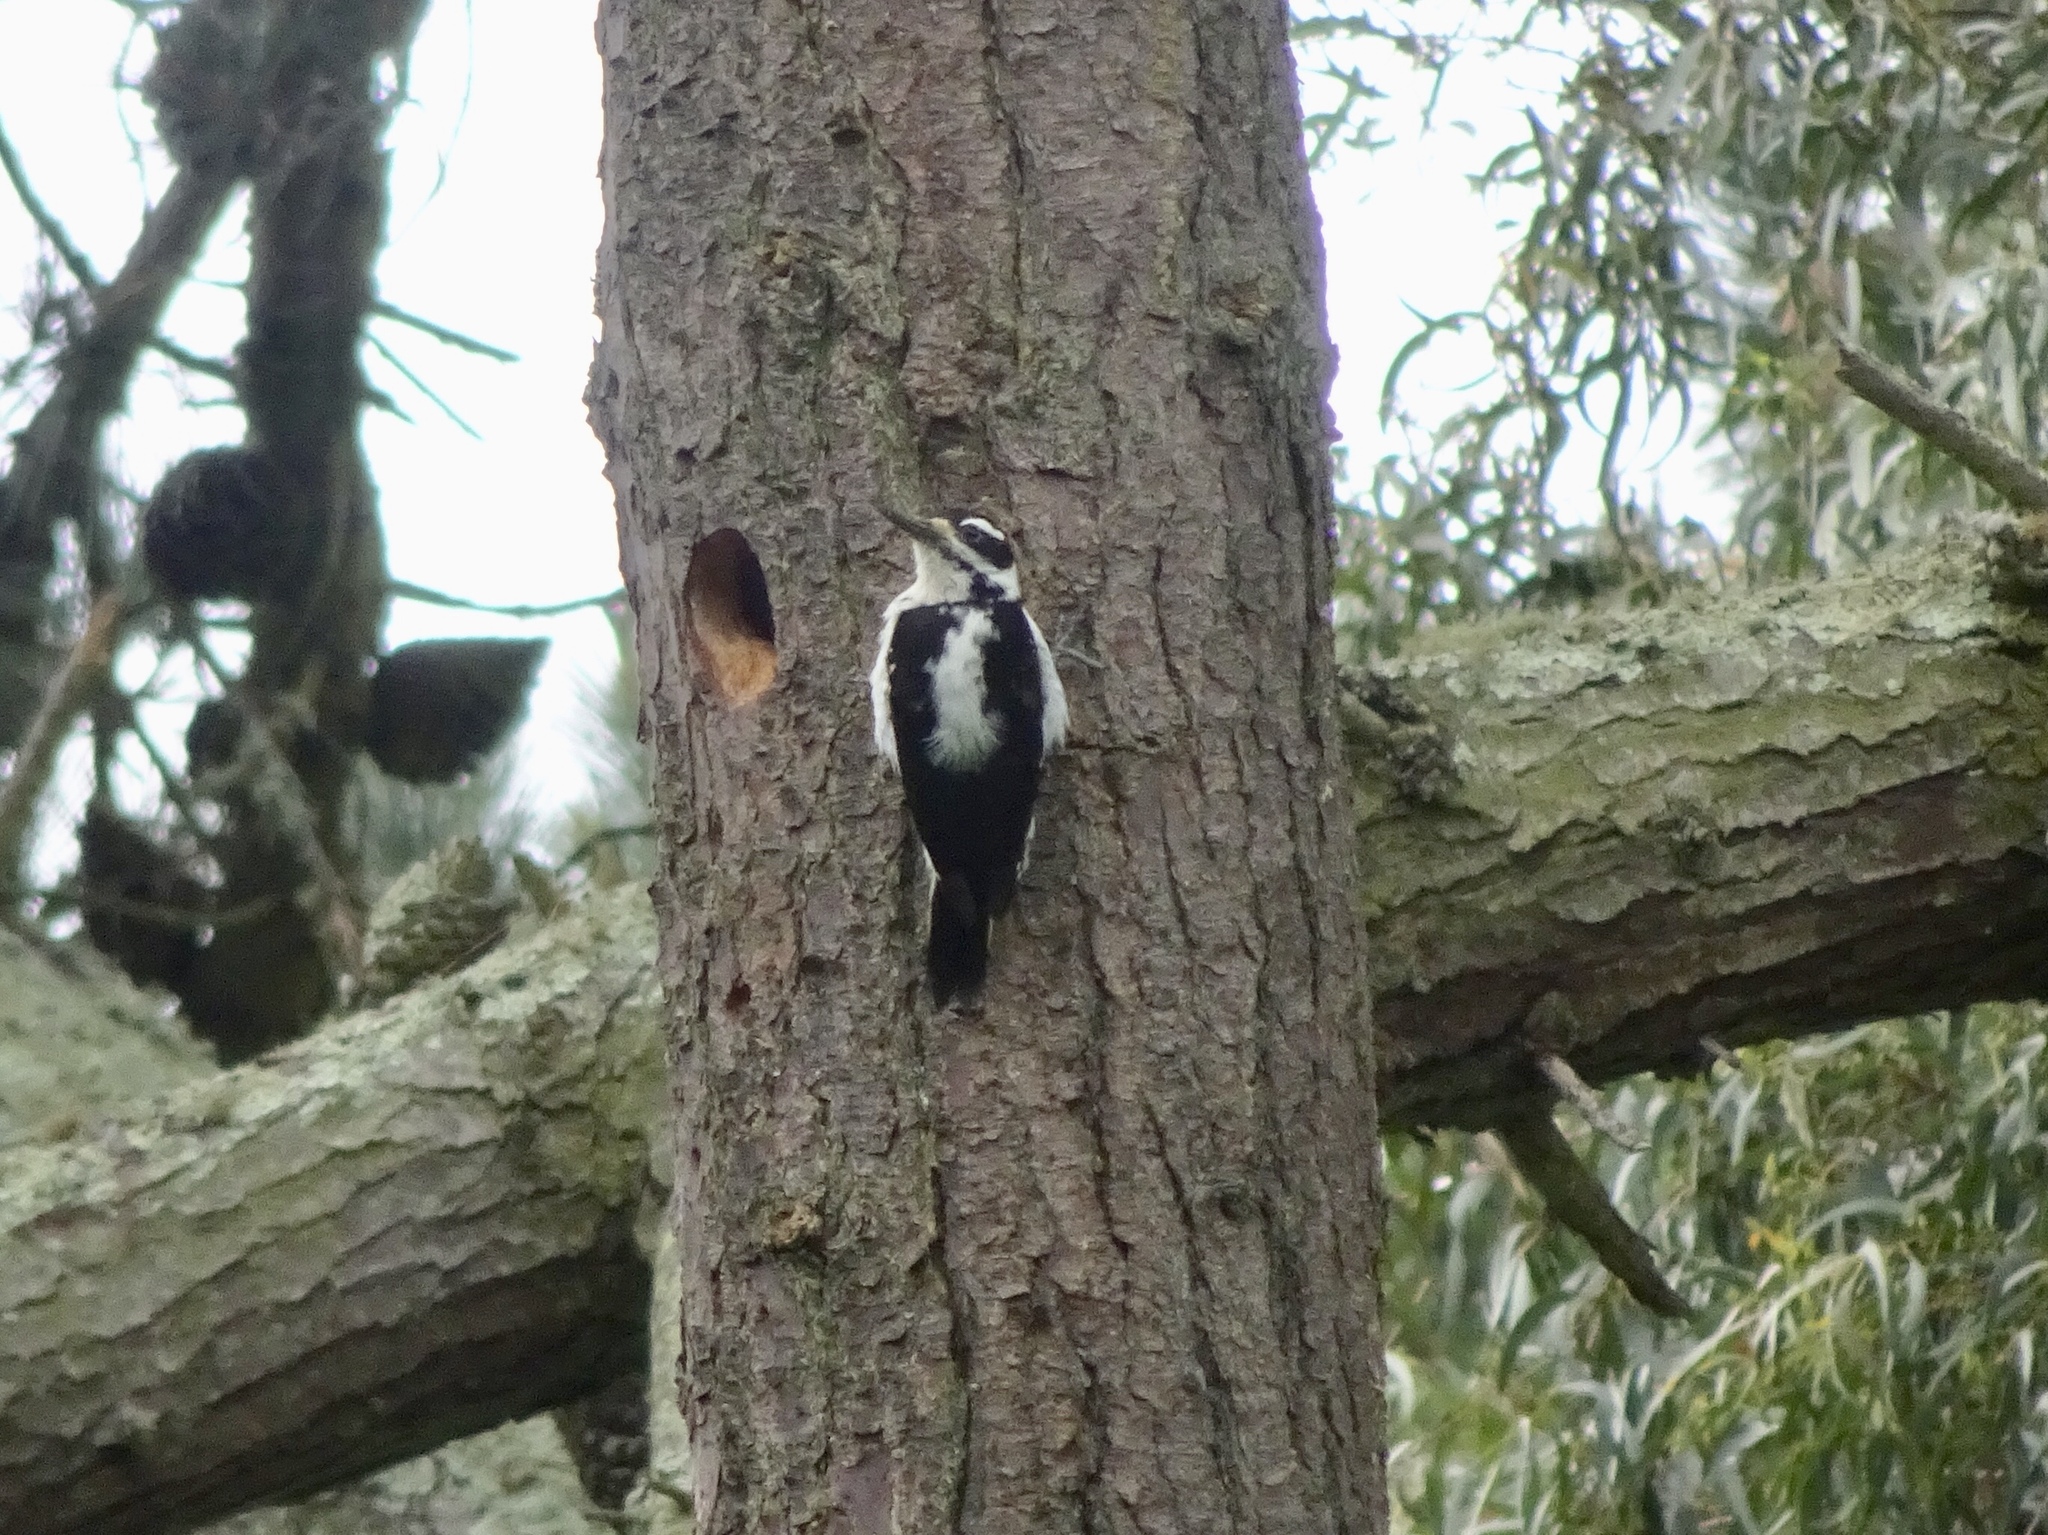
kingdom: Animalia
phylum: Chordata
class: Aves
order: Piciformes
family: Picidae
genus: Leuconotopicus
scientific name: Leuconotopicus villosus
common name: Hairy woodpecker
